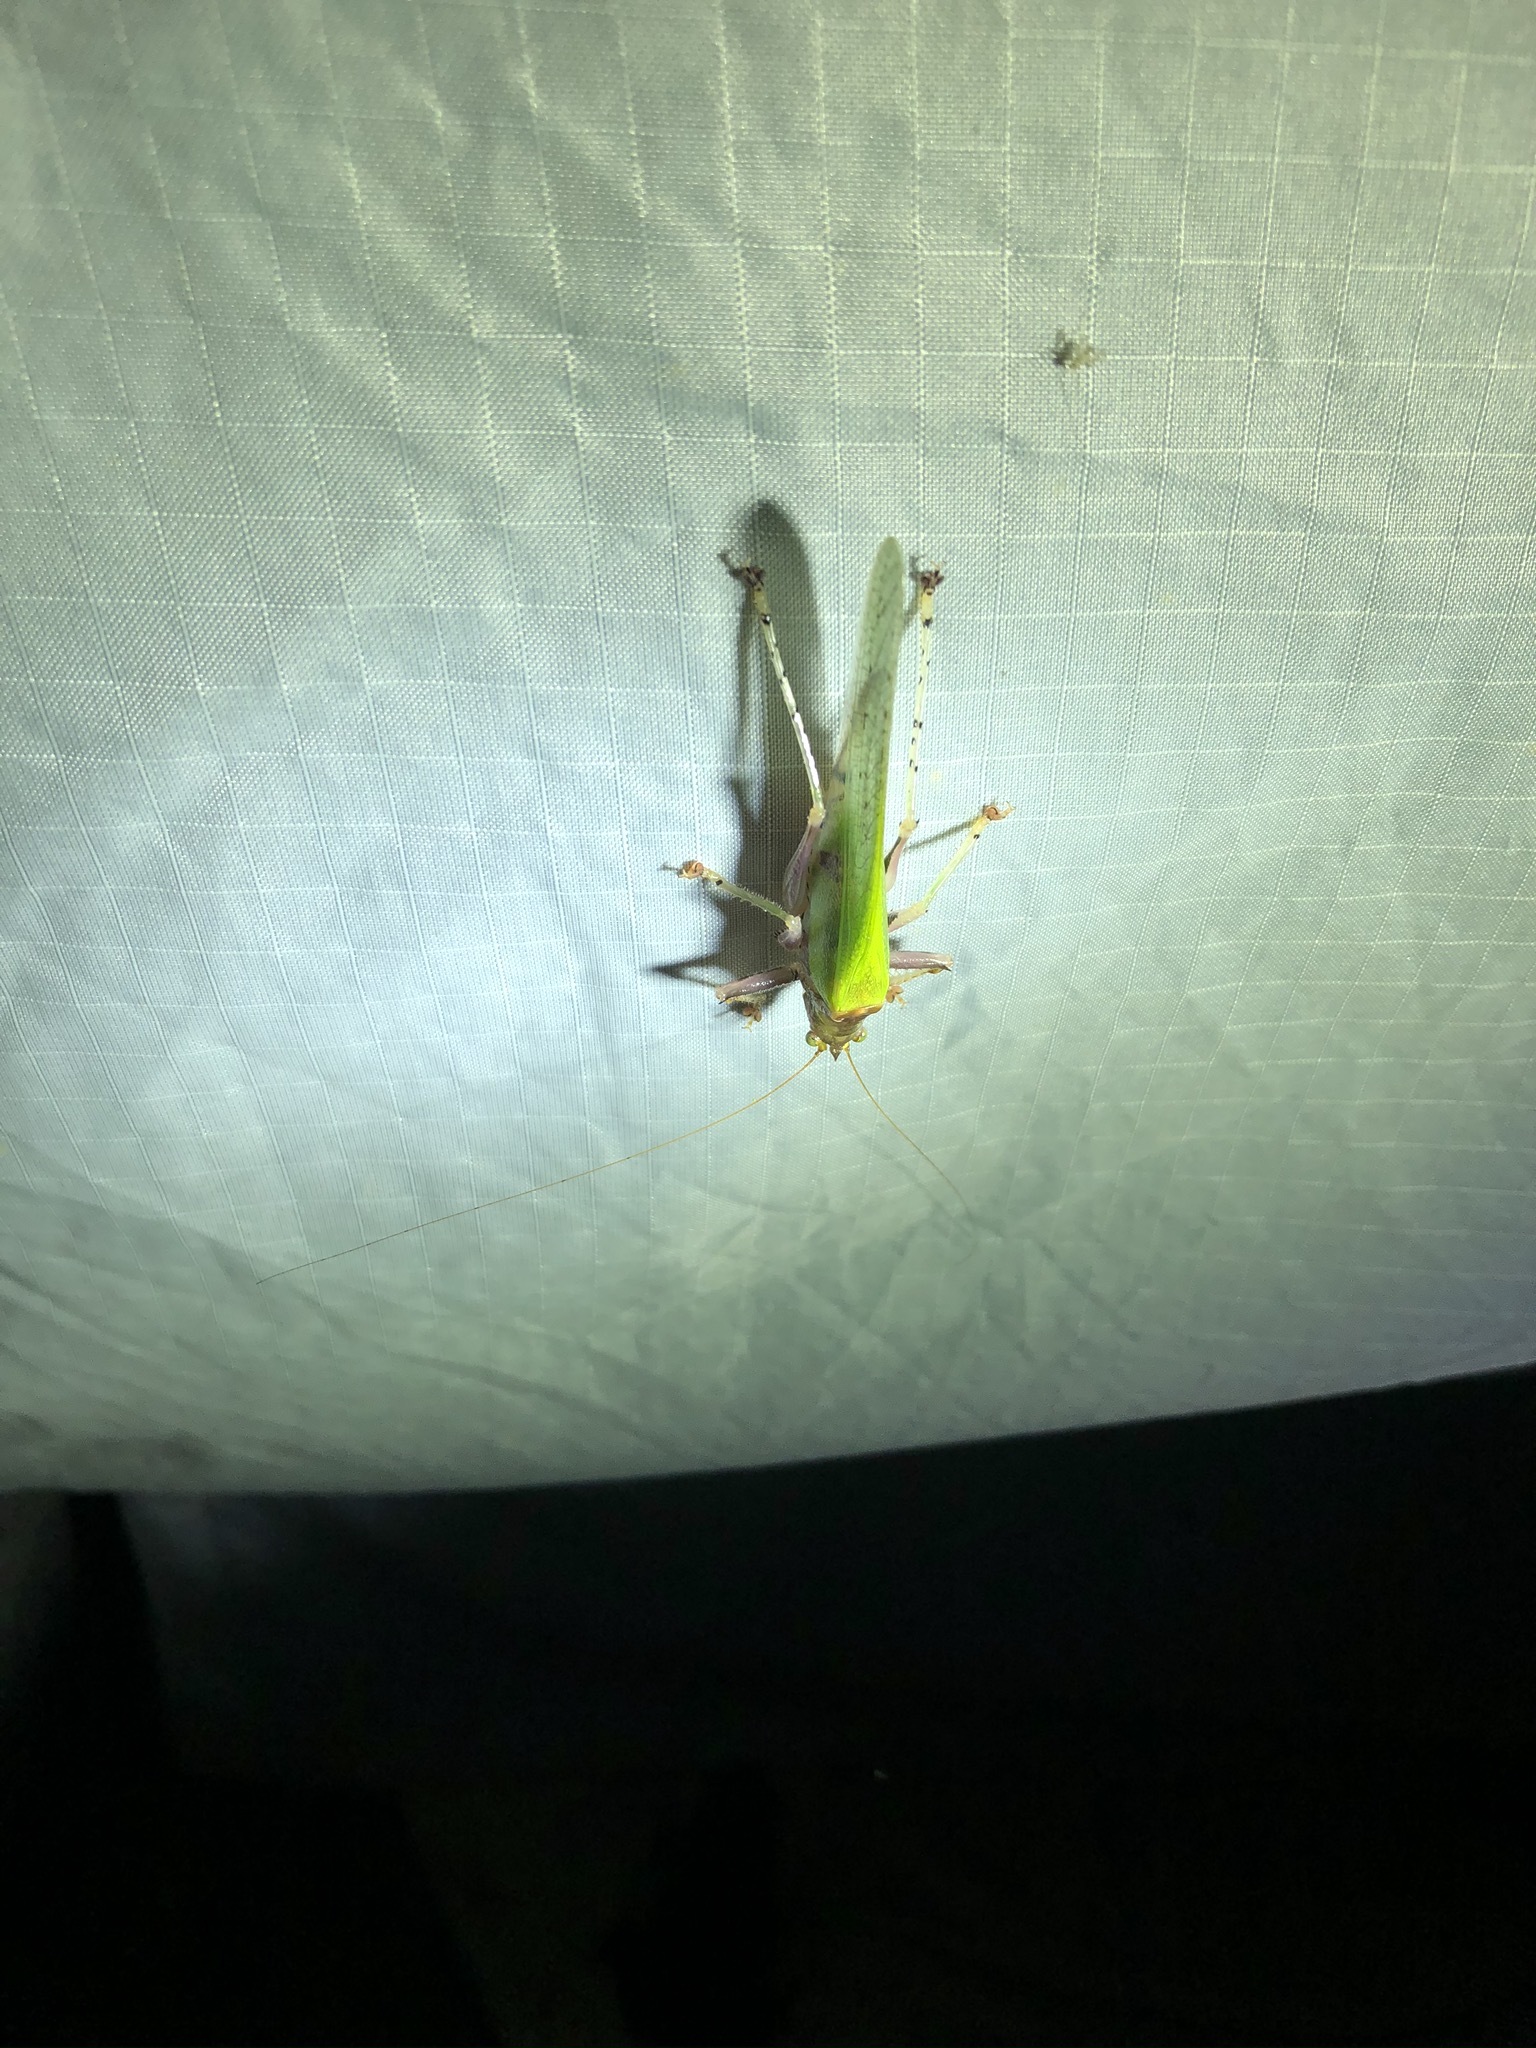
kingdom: Animalia
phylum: Arthropoda
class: Insecta
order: Orthoptera
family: Tettigoniidae
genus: Vestria
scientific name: Vestria punctata
